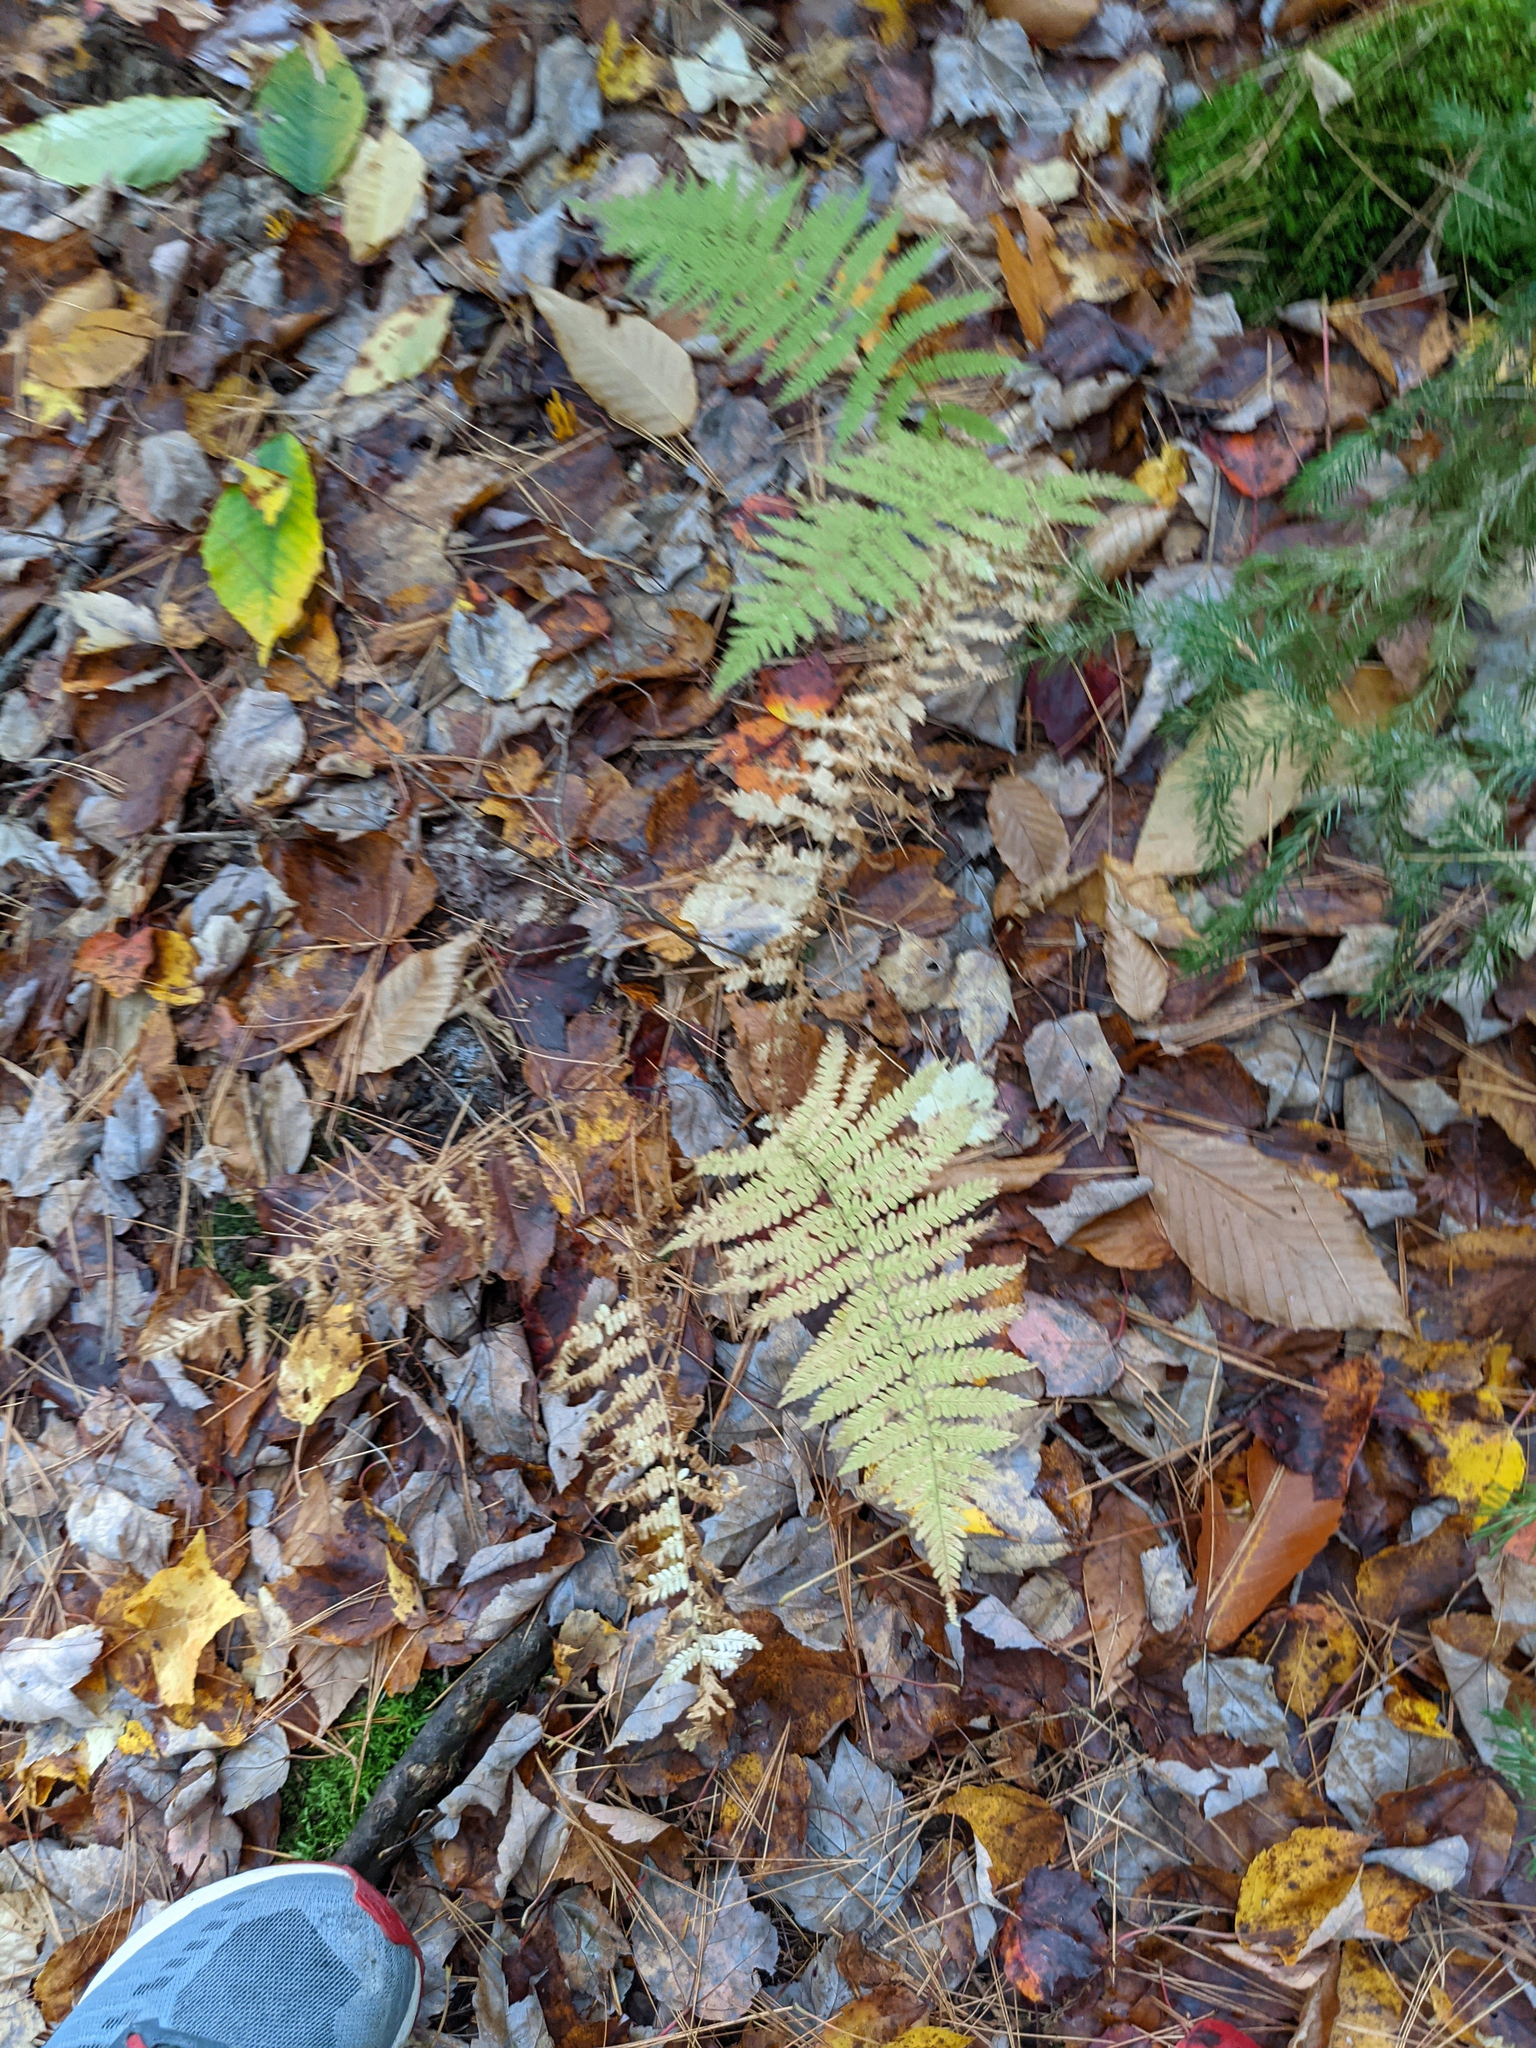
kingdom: Plantae
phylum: Tracheophyta
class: Polypodiopsida
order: Polypodiales
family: Thelypteridaceae
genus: Amauropelta
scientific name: Amauropelta noveboracensis
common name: New york fern
